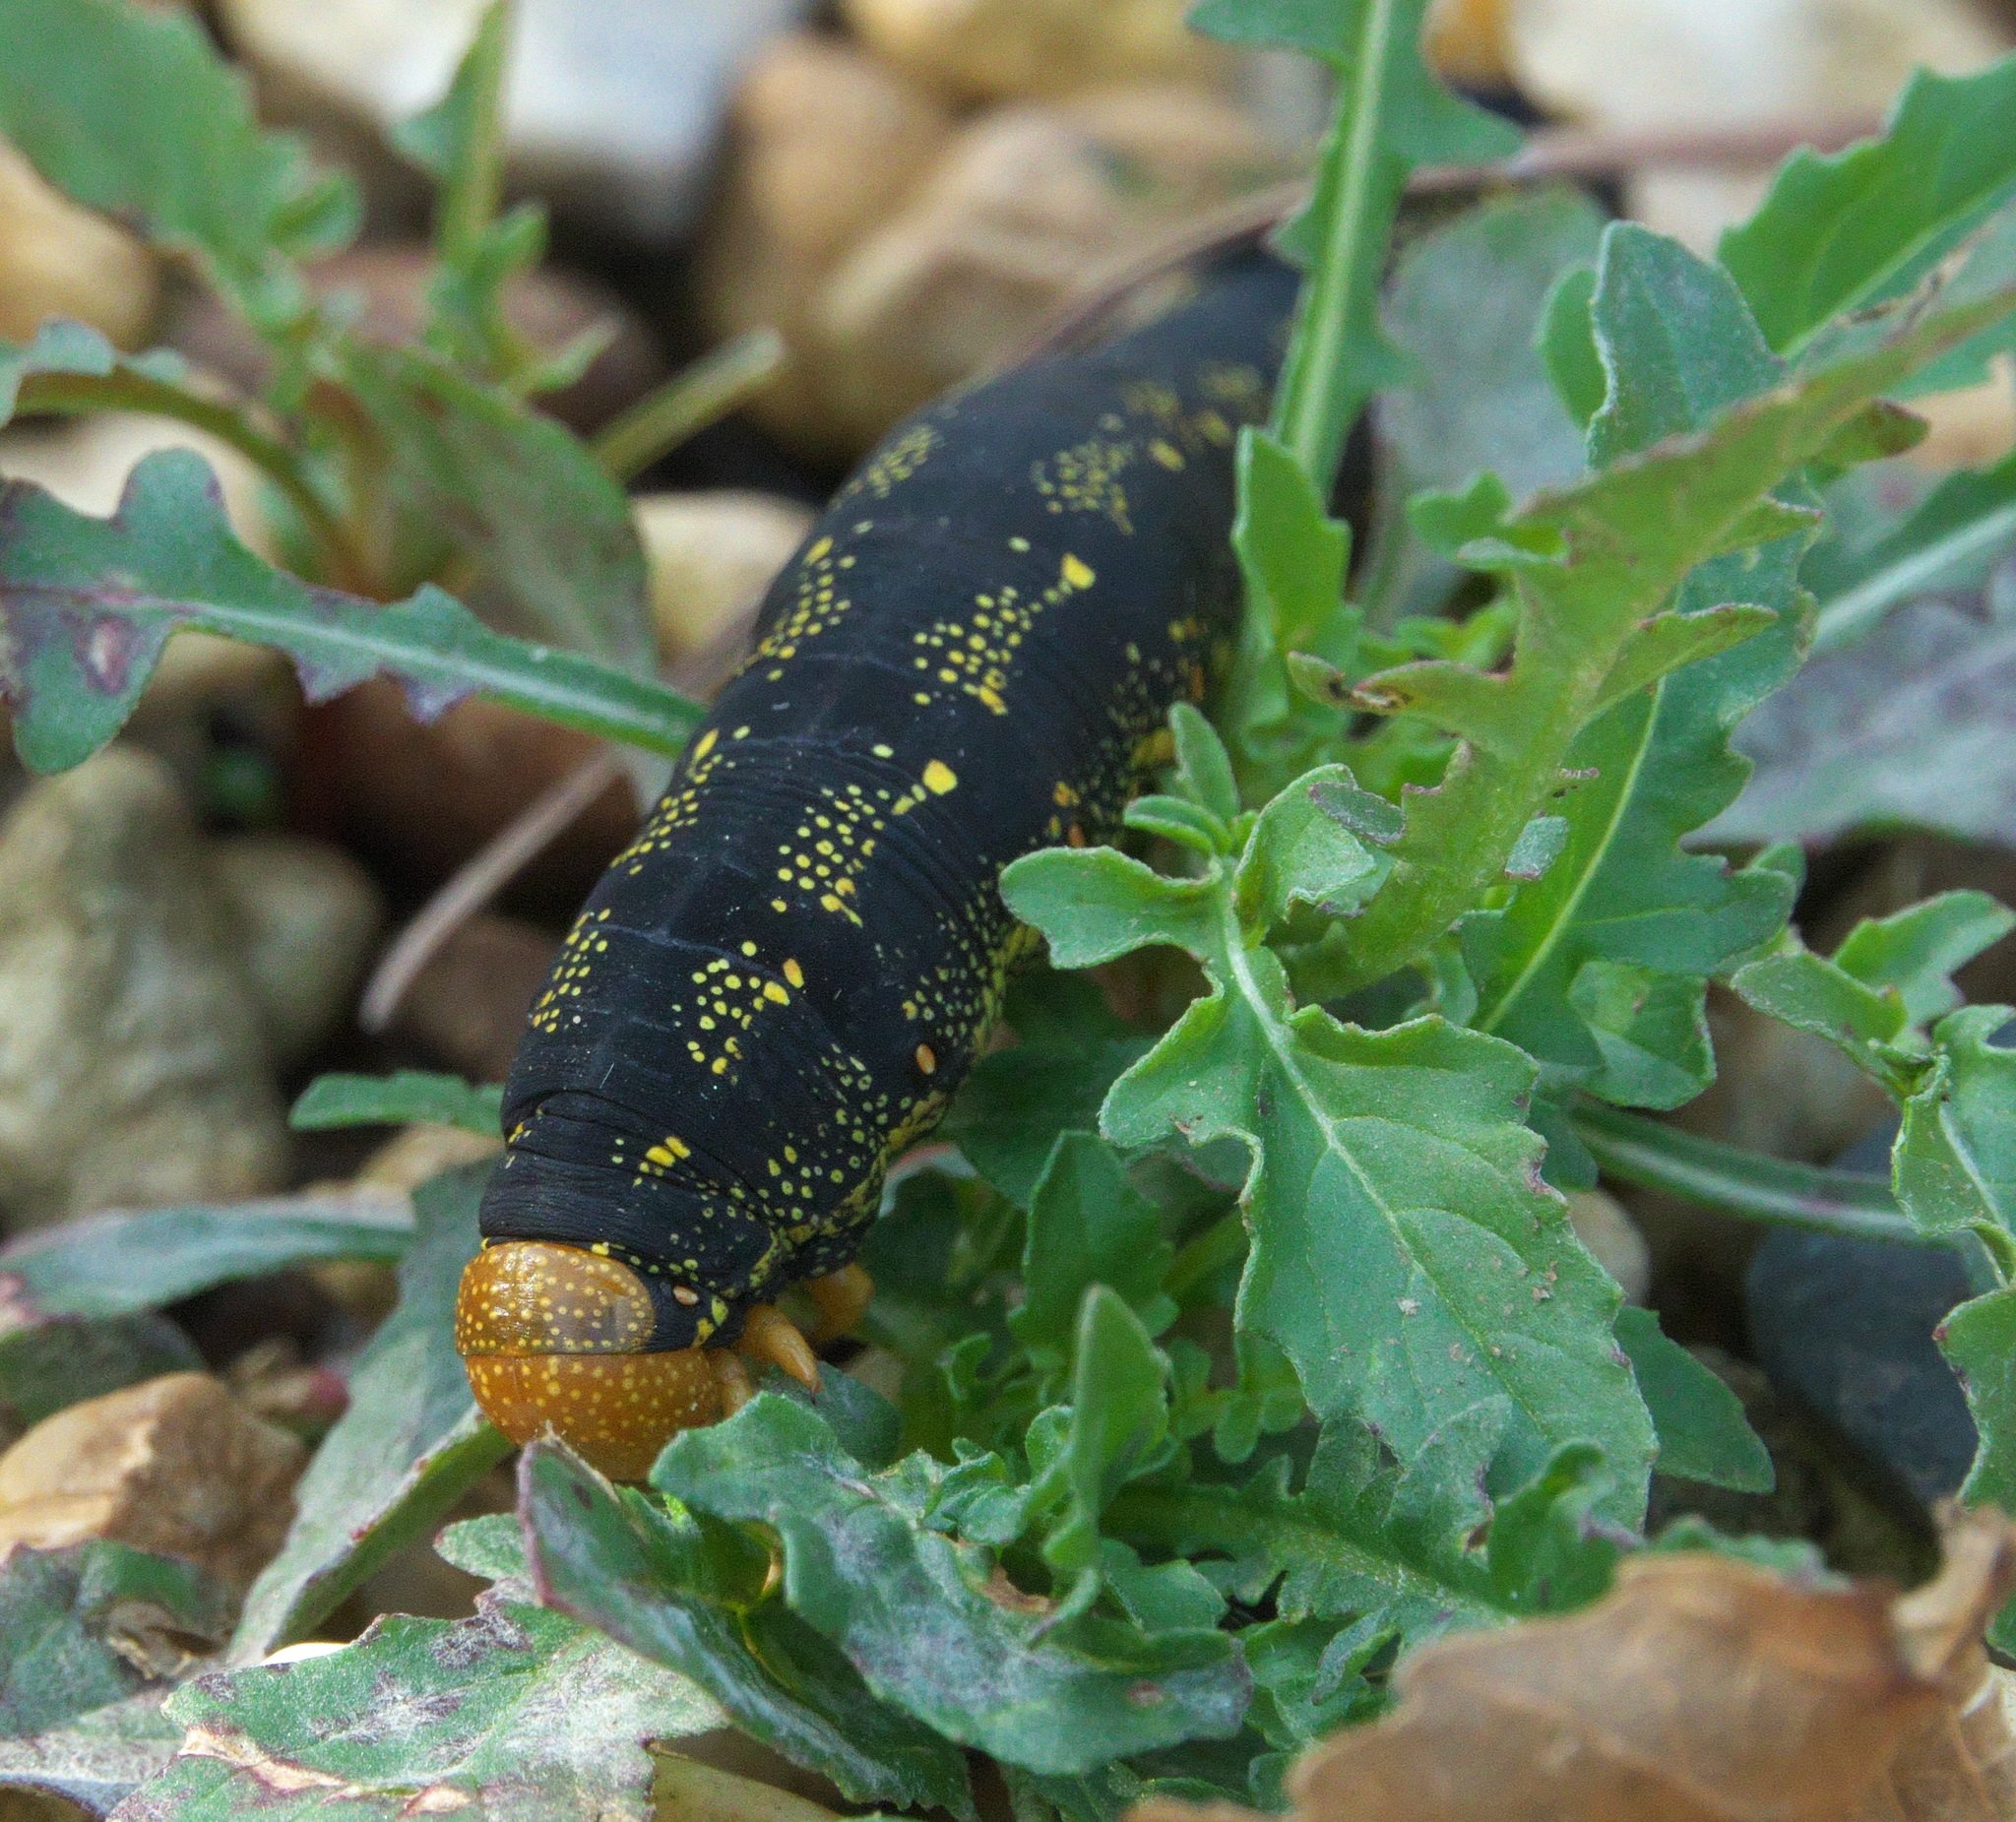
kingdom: Animalia
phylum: Arthropoda
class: Insecta
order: Lepidoptera
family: Sphingidae
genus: Hyles
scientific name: Hyles lineata
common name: White-lined sphinx
